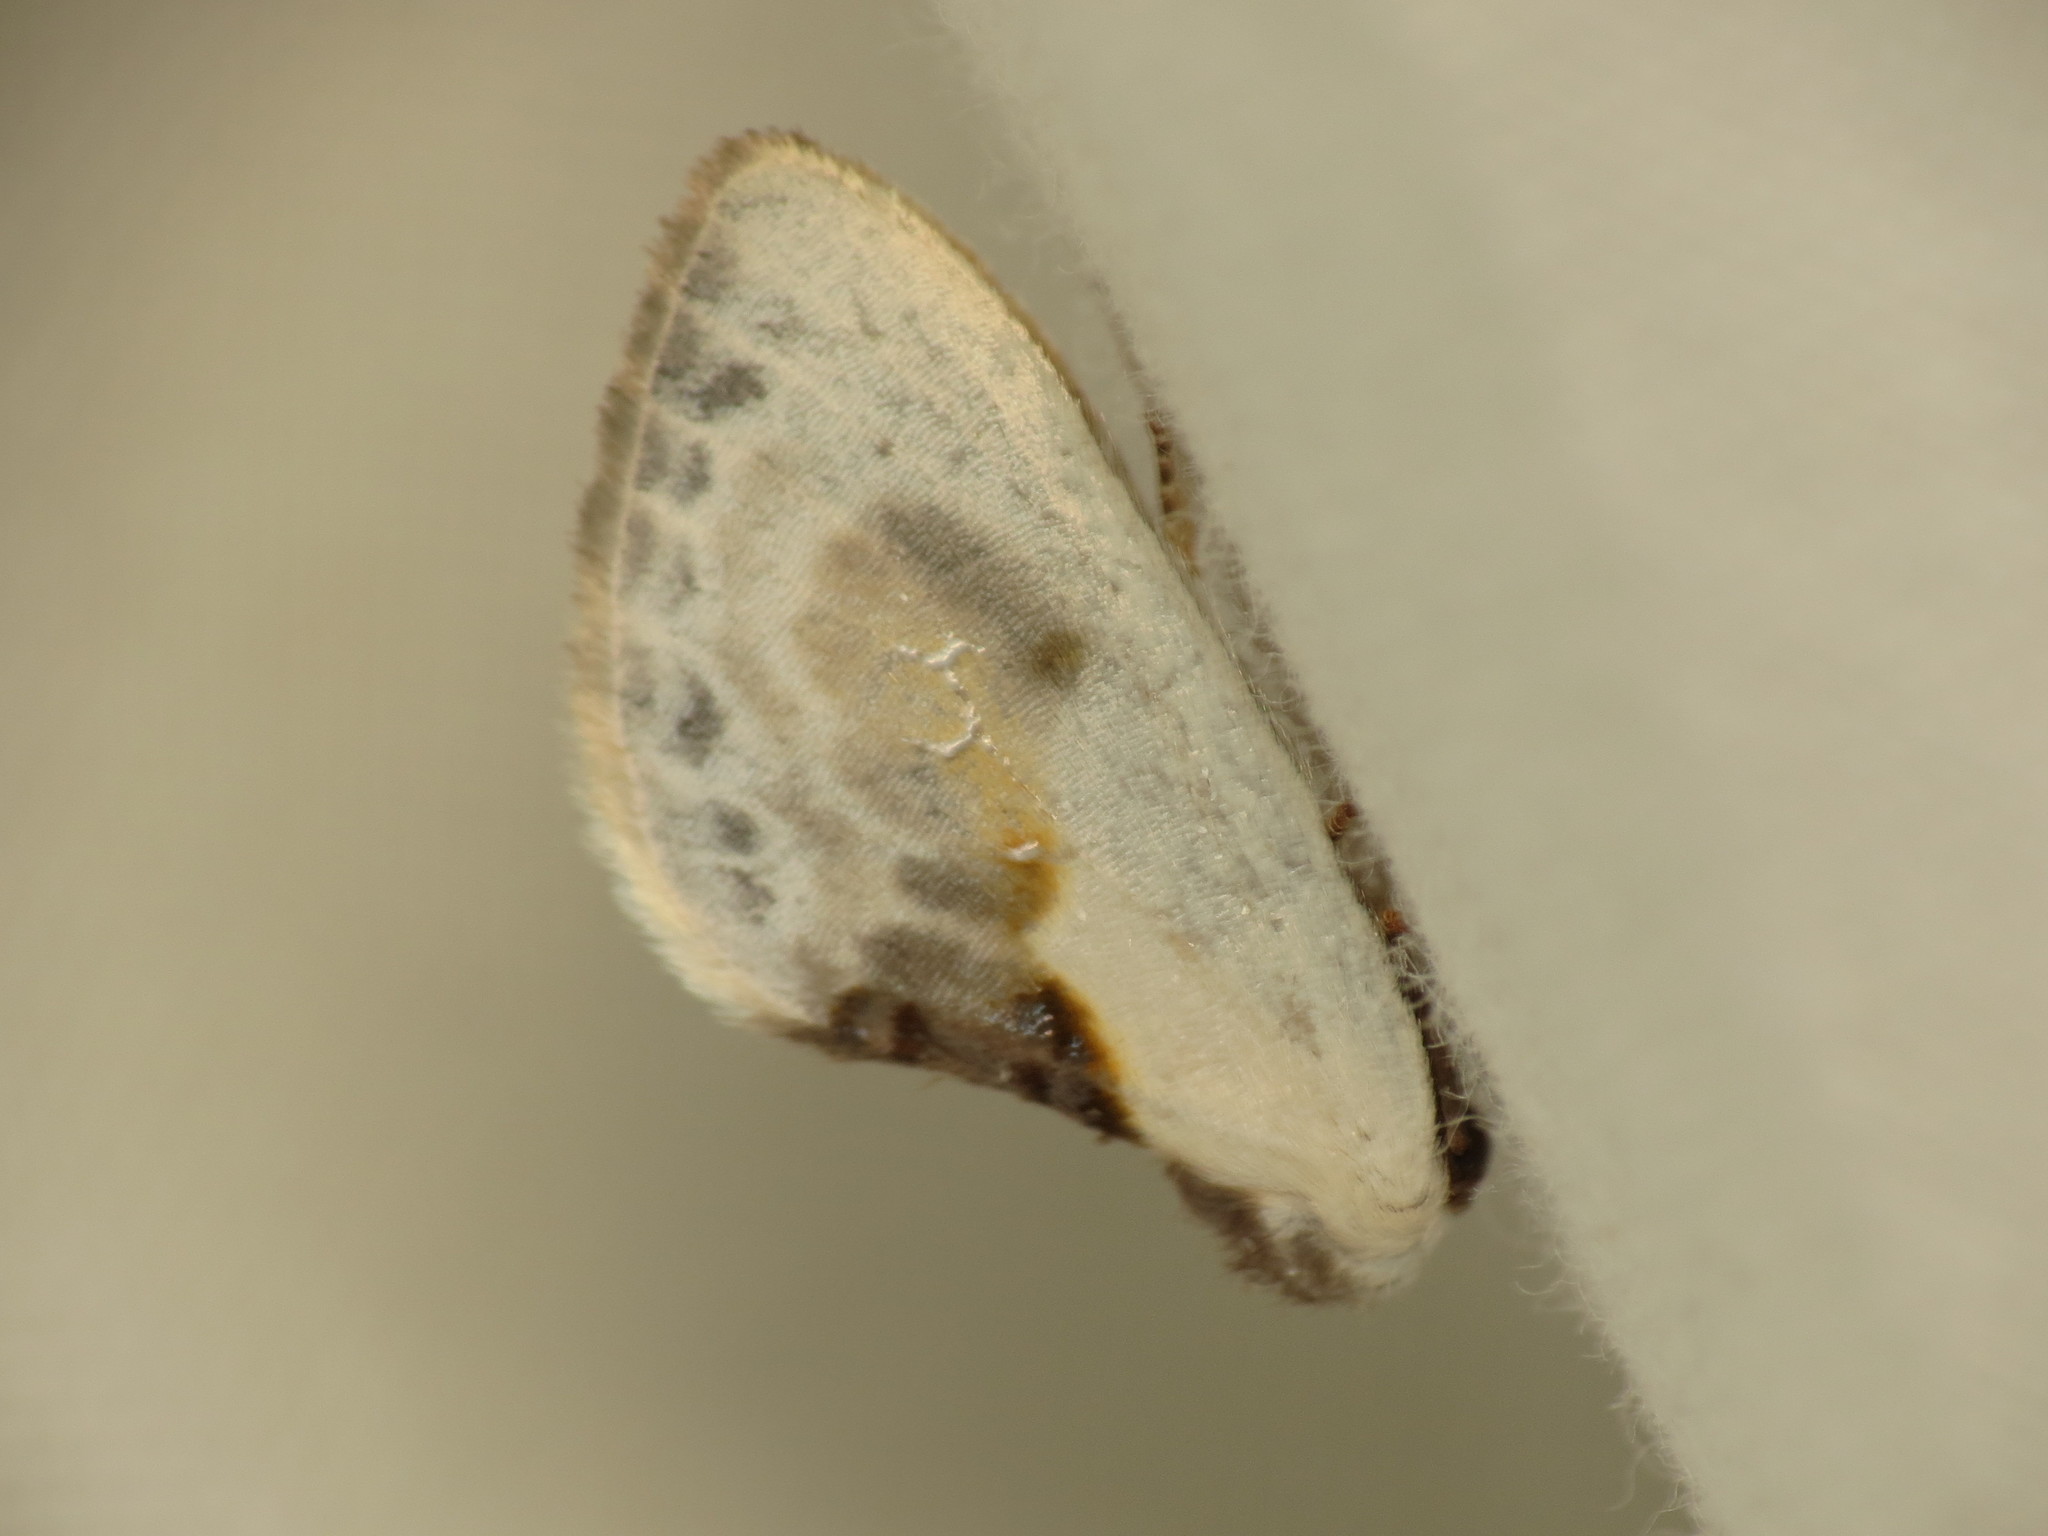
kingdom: Animalia
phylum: Arthropoda
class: Insecta
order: Lepidoptera
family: Drepanidae
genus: Cilix
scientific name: Cilix glaucata
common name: Chinese character
